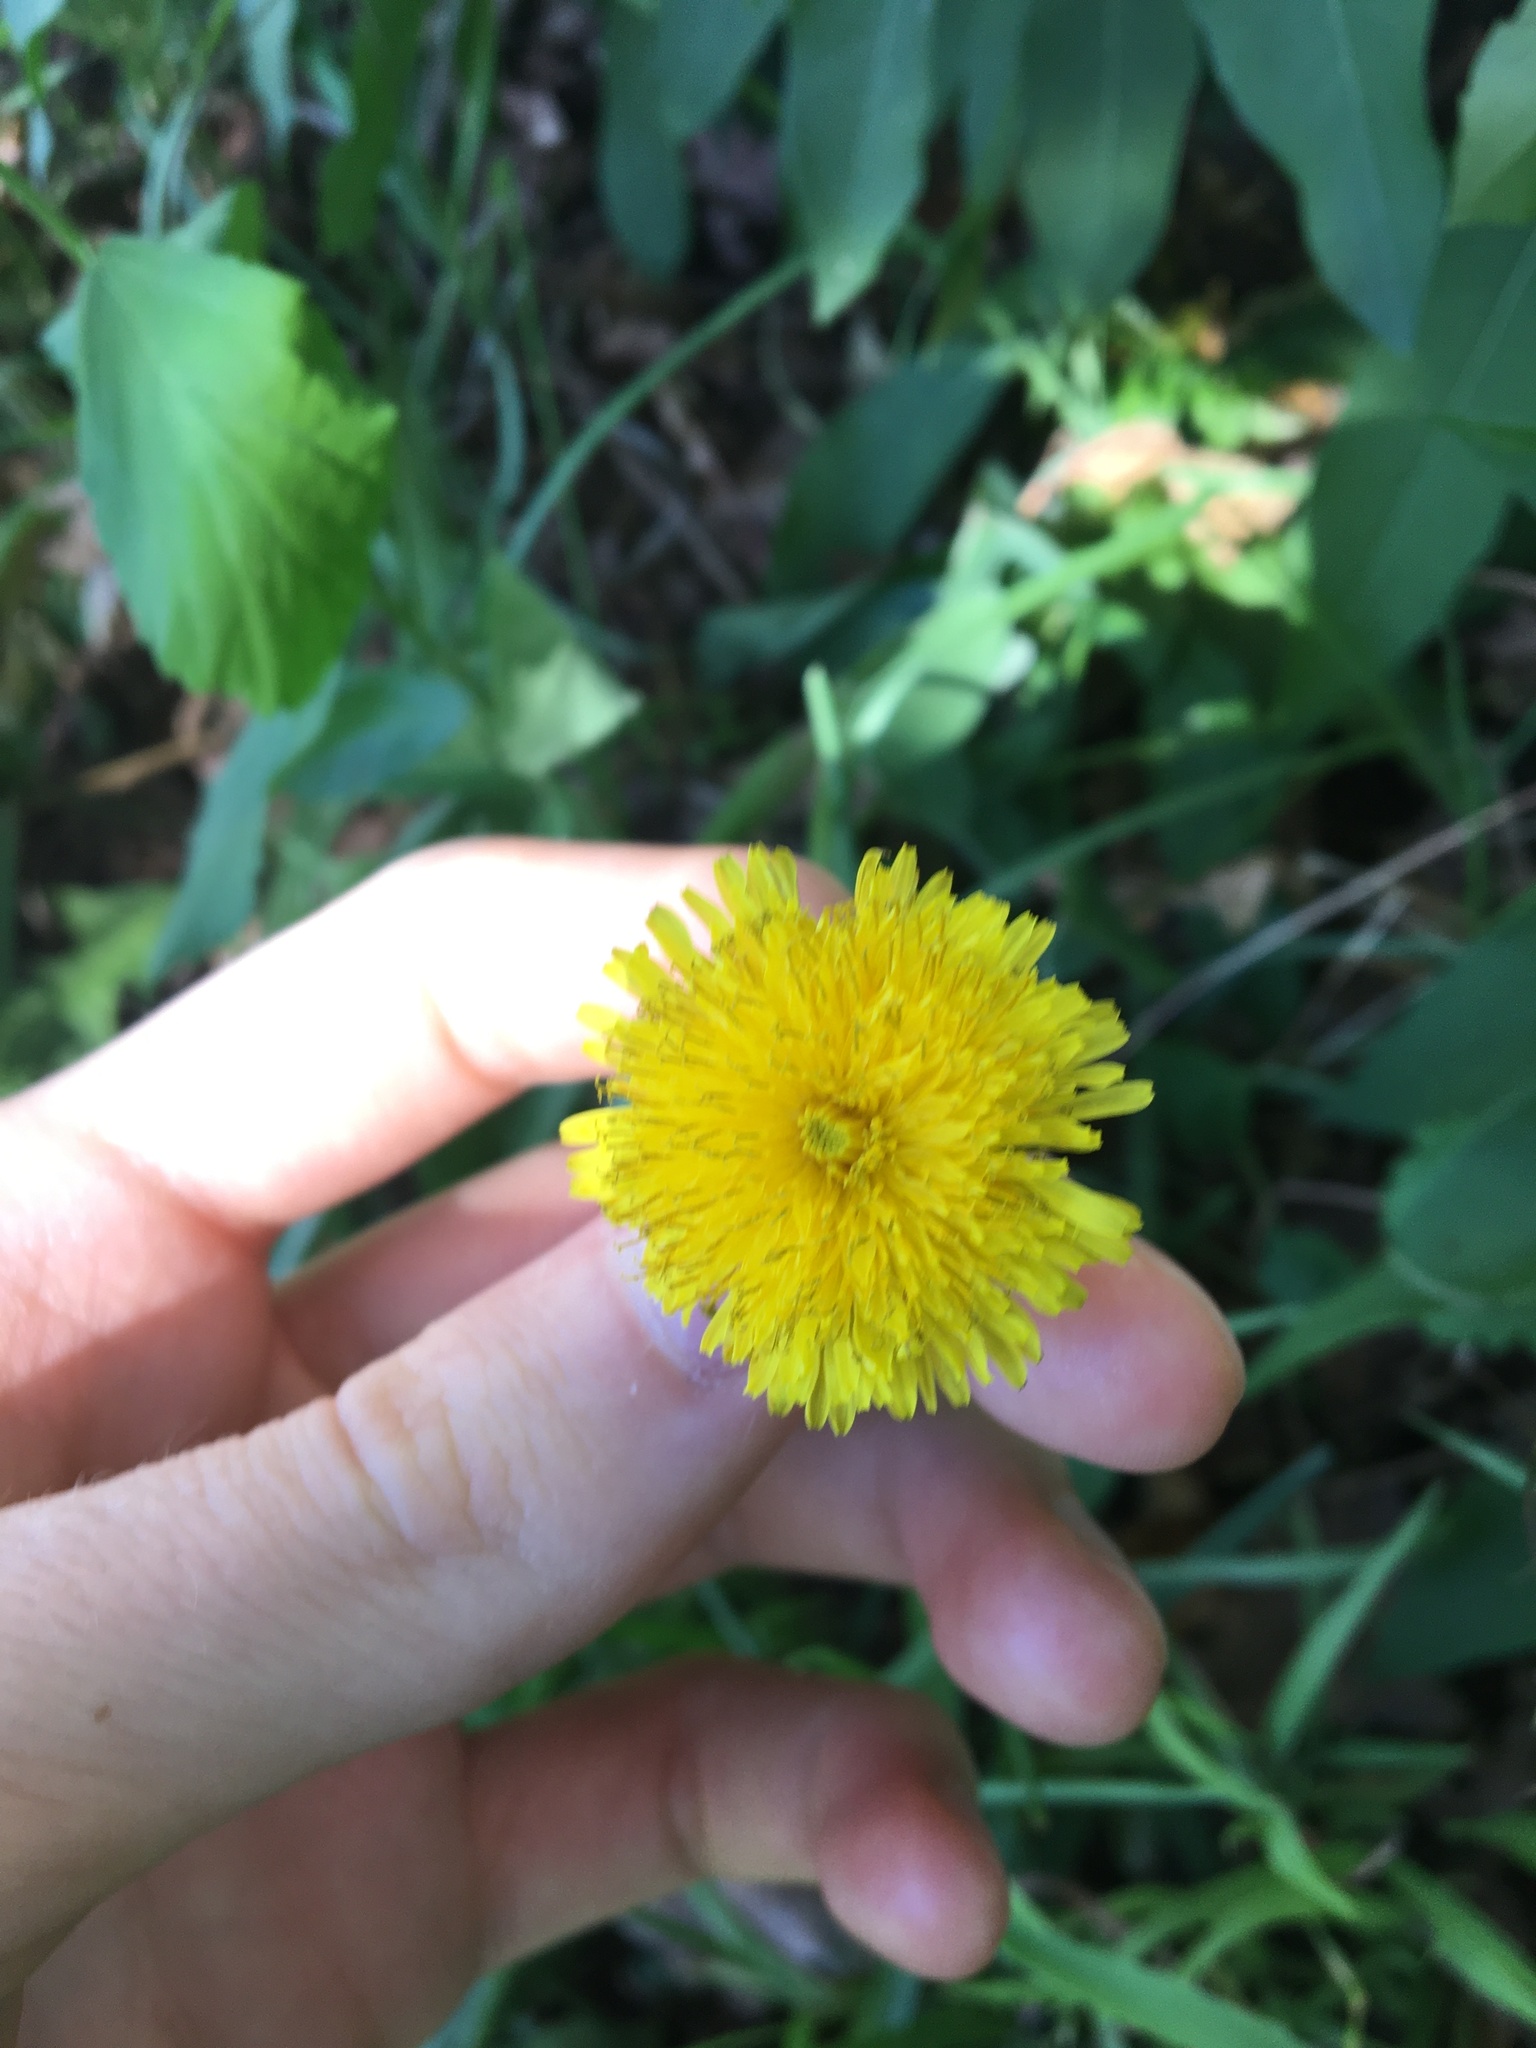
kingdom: Plantae
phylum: Tracheophyta
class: Magnoliopsida
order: Asterales
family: Asteraceae
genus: Taraxacum
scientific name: Taraxacum officinale
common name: Common dandelion
